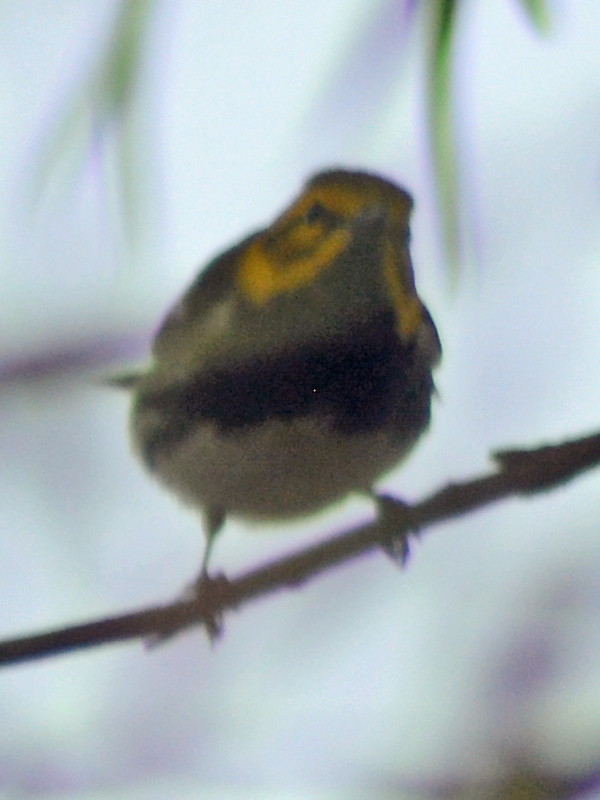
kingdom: Animalia
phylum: Chordata
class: Aves
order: Passeriformes
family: Parulidae
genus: Setophaga
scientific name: Setophaga virens
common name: Black-throated green warbler
